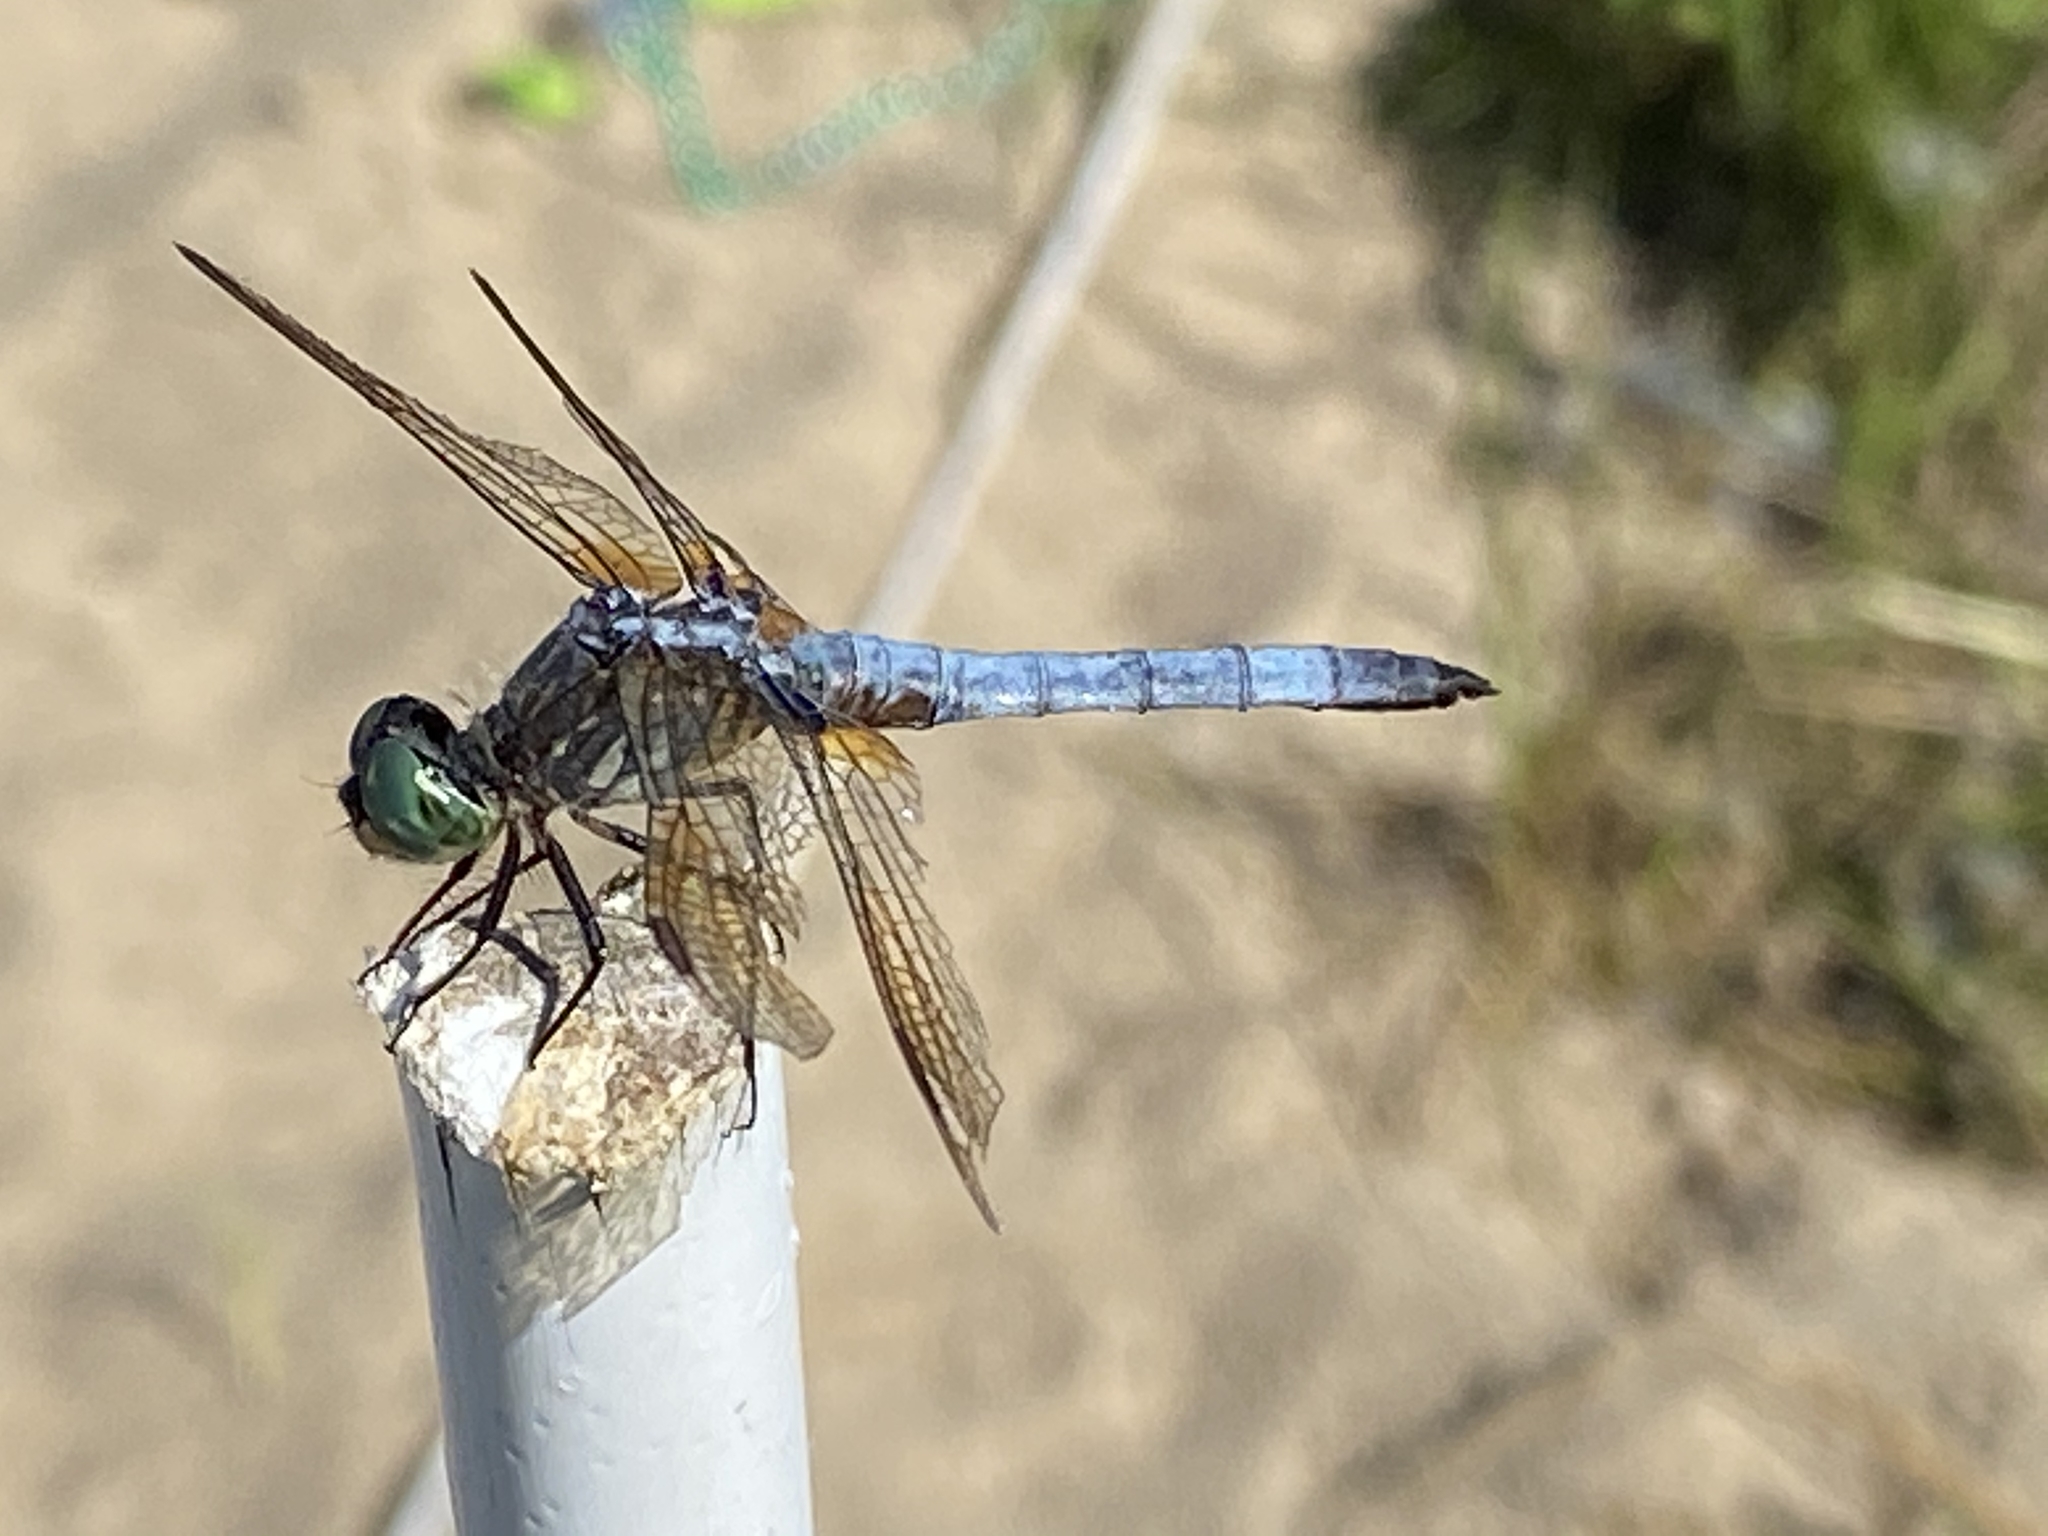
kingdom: Animalia
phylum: Arthropoda
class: Insecta
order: Odonata
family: Libellulidae
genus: Pachydiplax
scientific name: Pachydiplax longipennis
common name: Blue dasher
